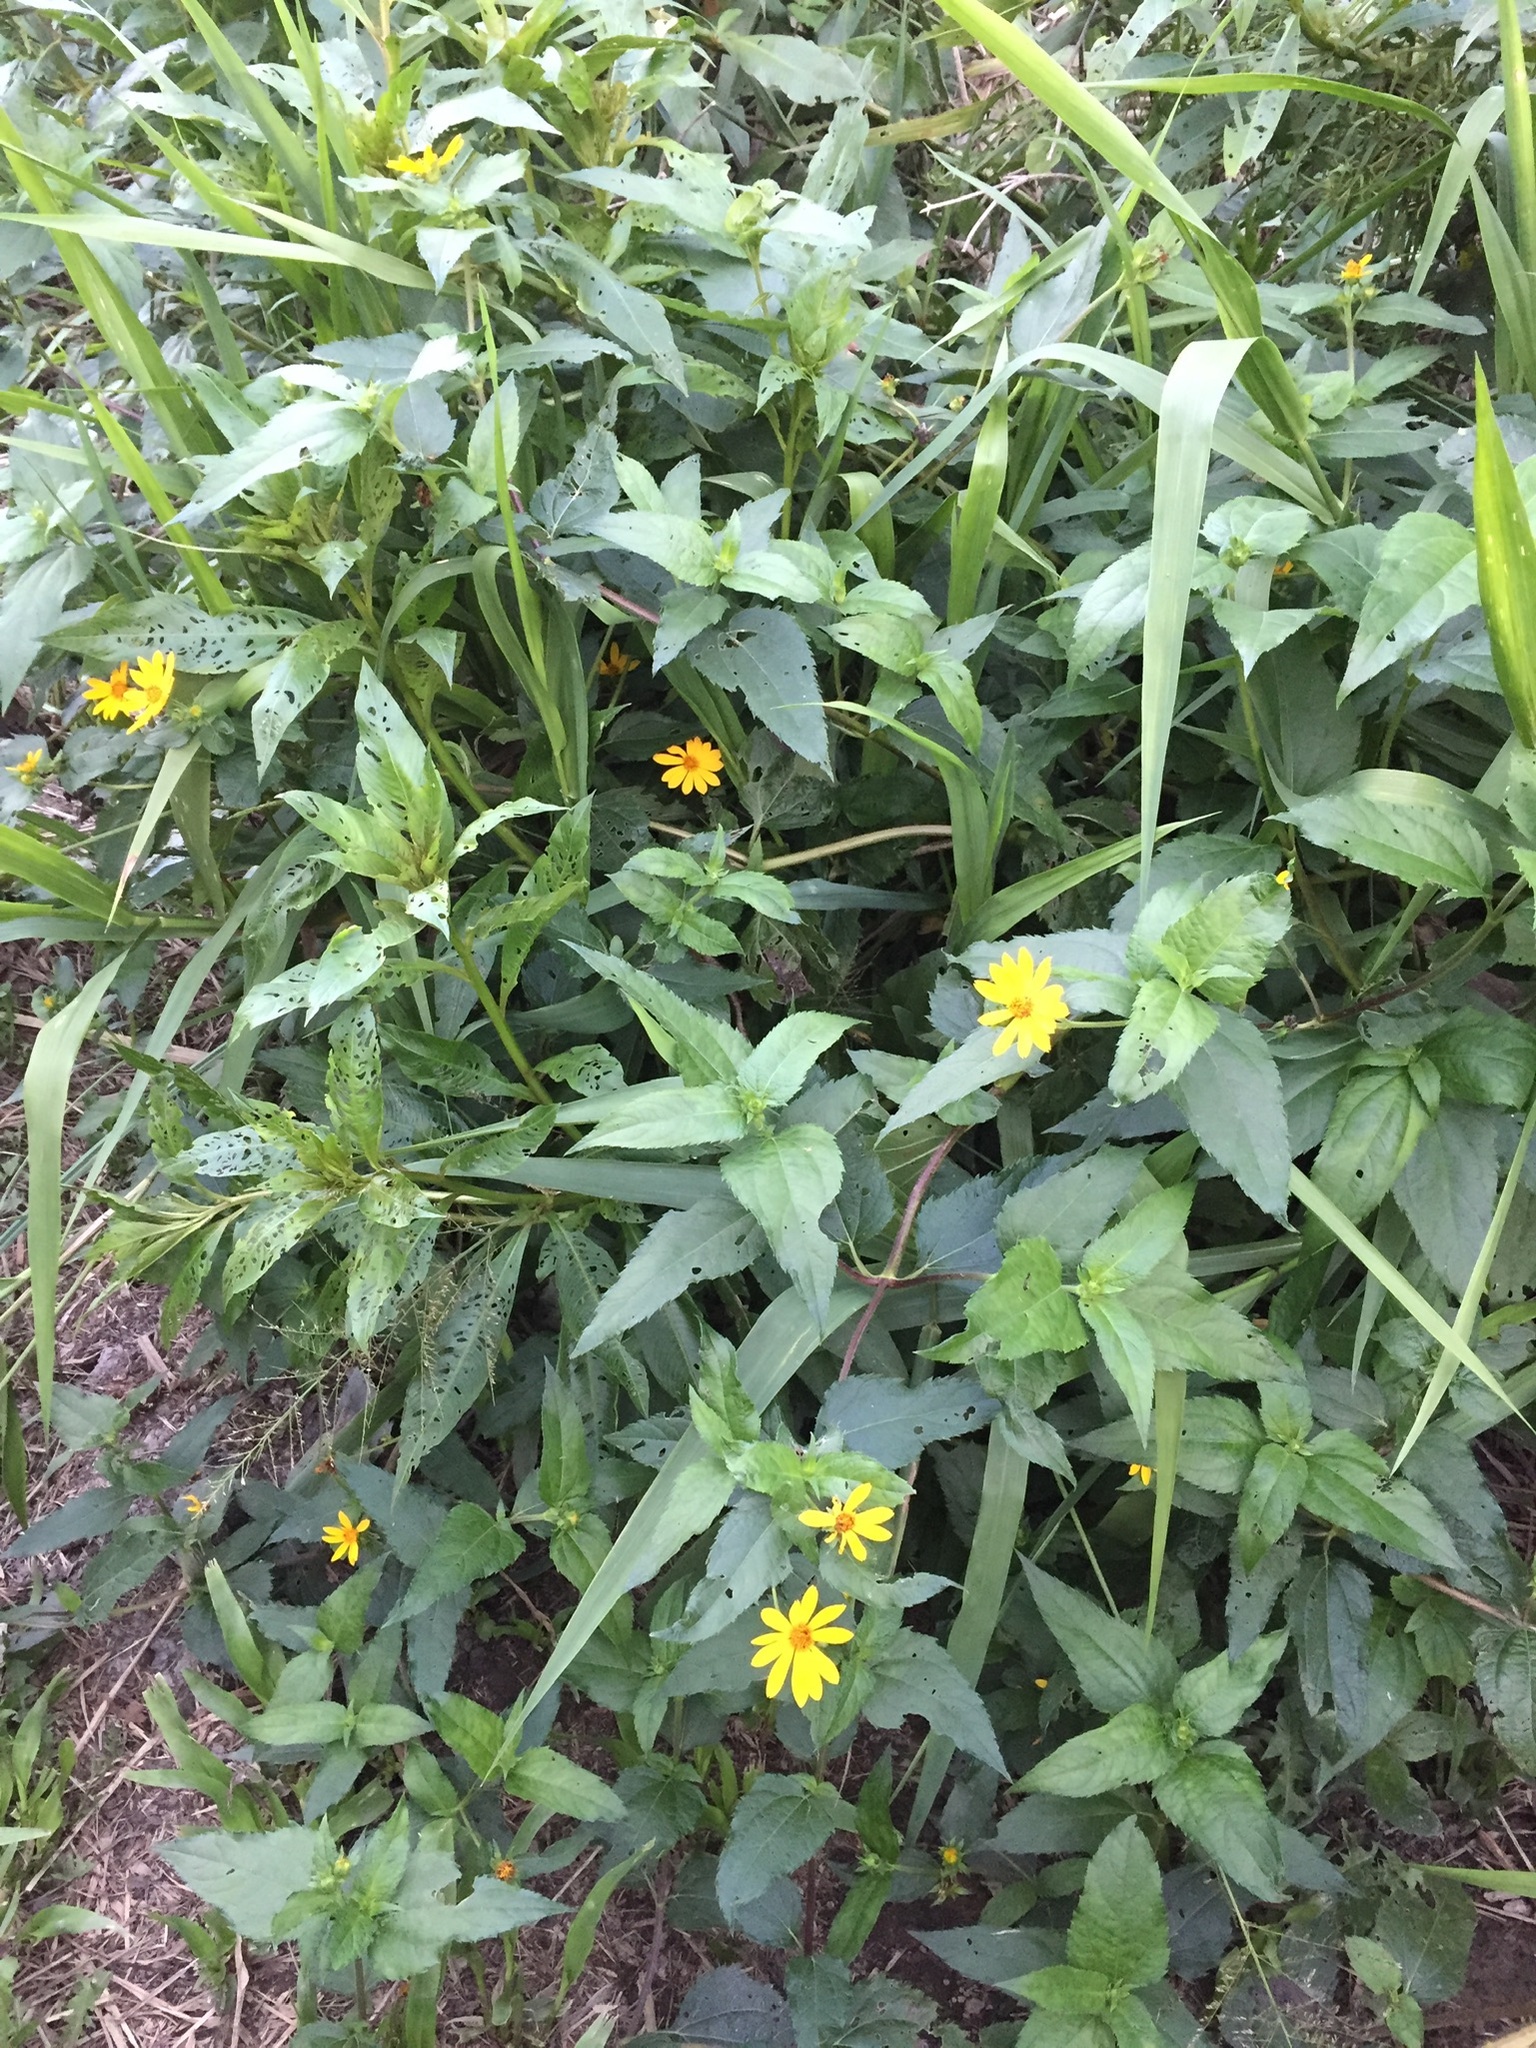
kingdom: Plantae
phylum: Tracheophyta
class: Magnoliopsida
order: Asterales
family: Asteraceae
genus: Wedelia
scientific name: Wedelia silphioides
